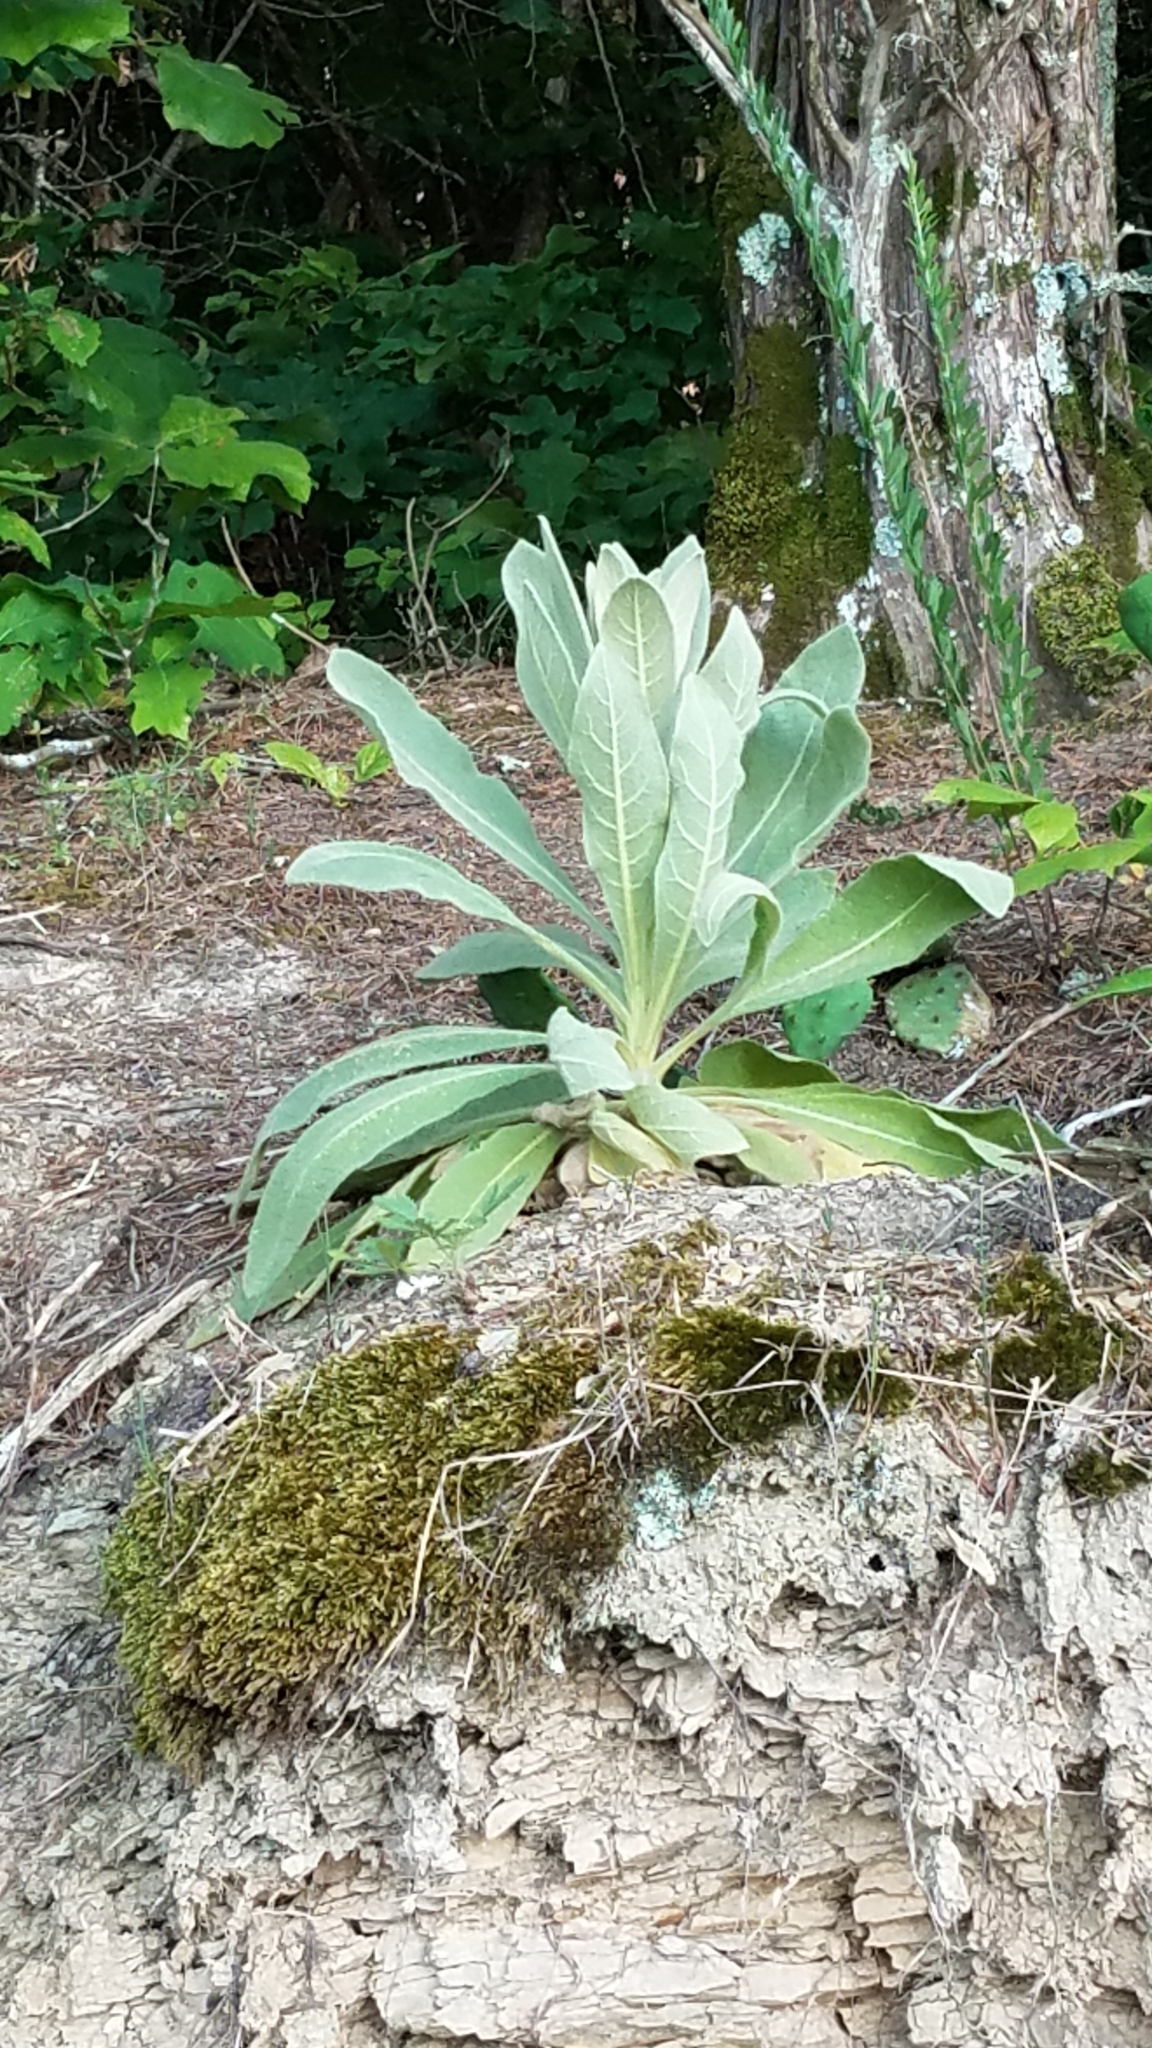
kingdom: Plantae
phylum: Tracheophyta
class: Magnoliopsida
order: Lamiales
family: Scrophulariaceae
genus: Verbascum
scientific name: Verbascum thapsus
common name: Common mullein
